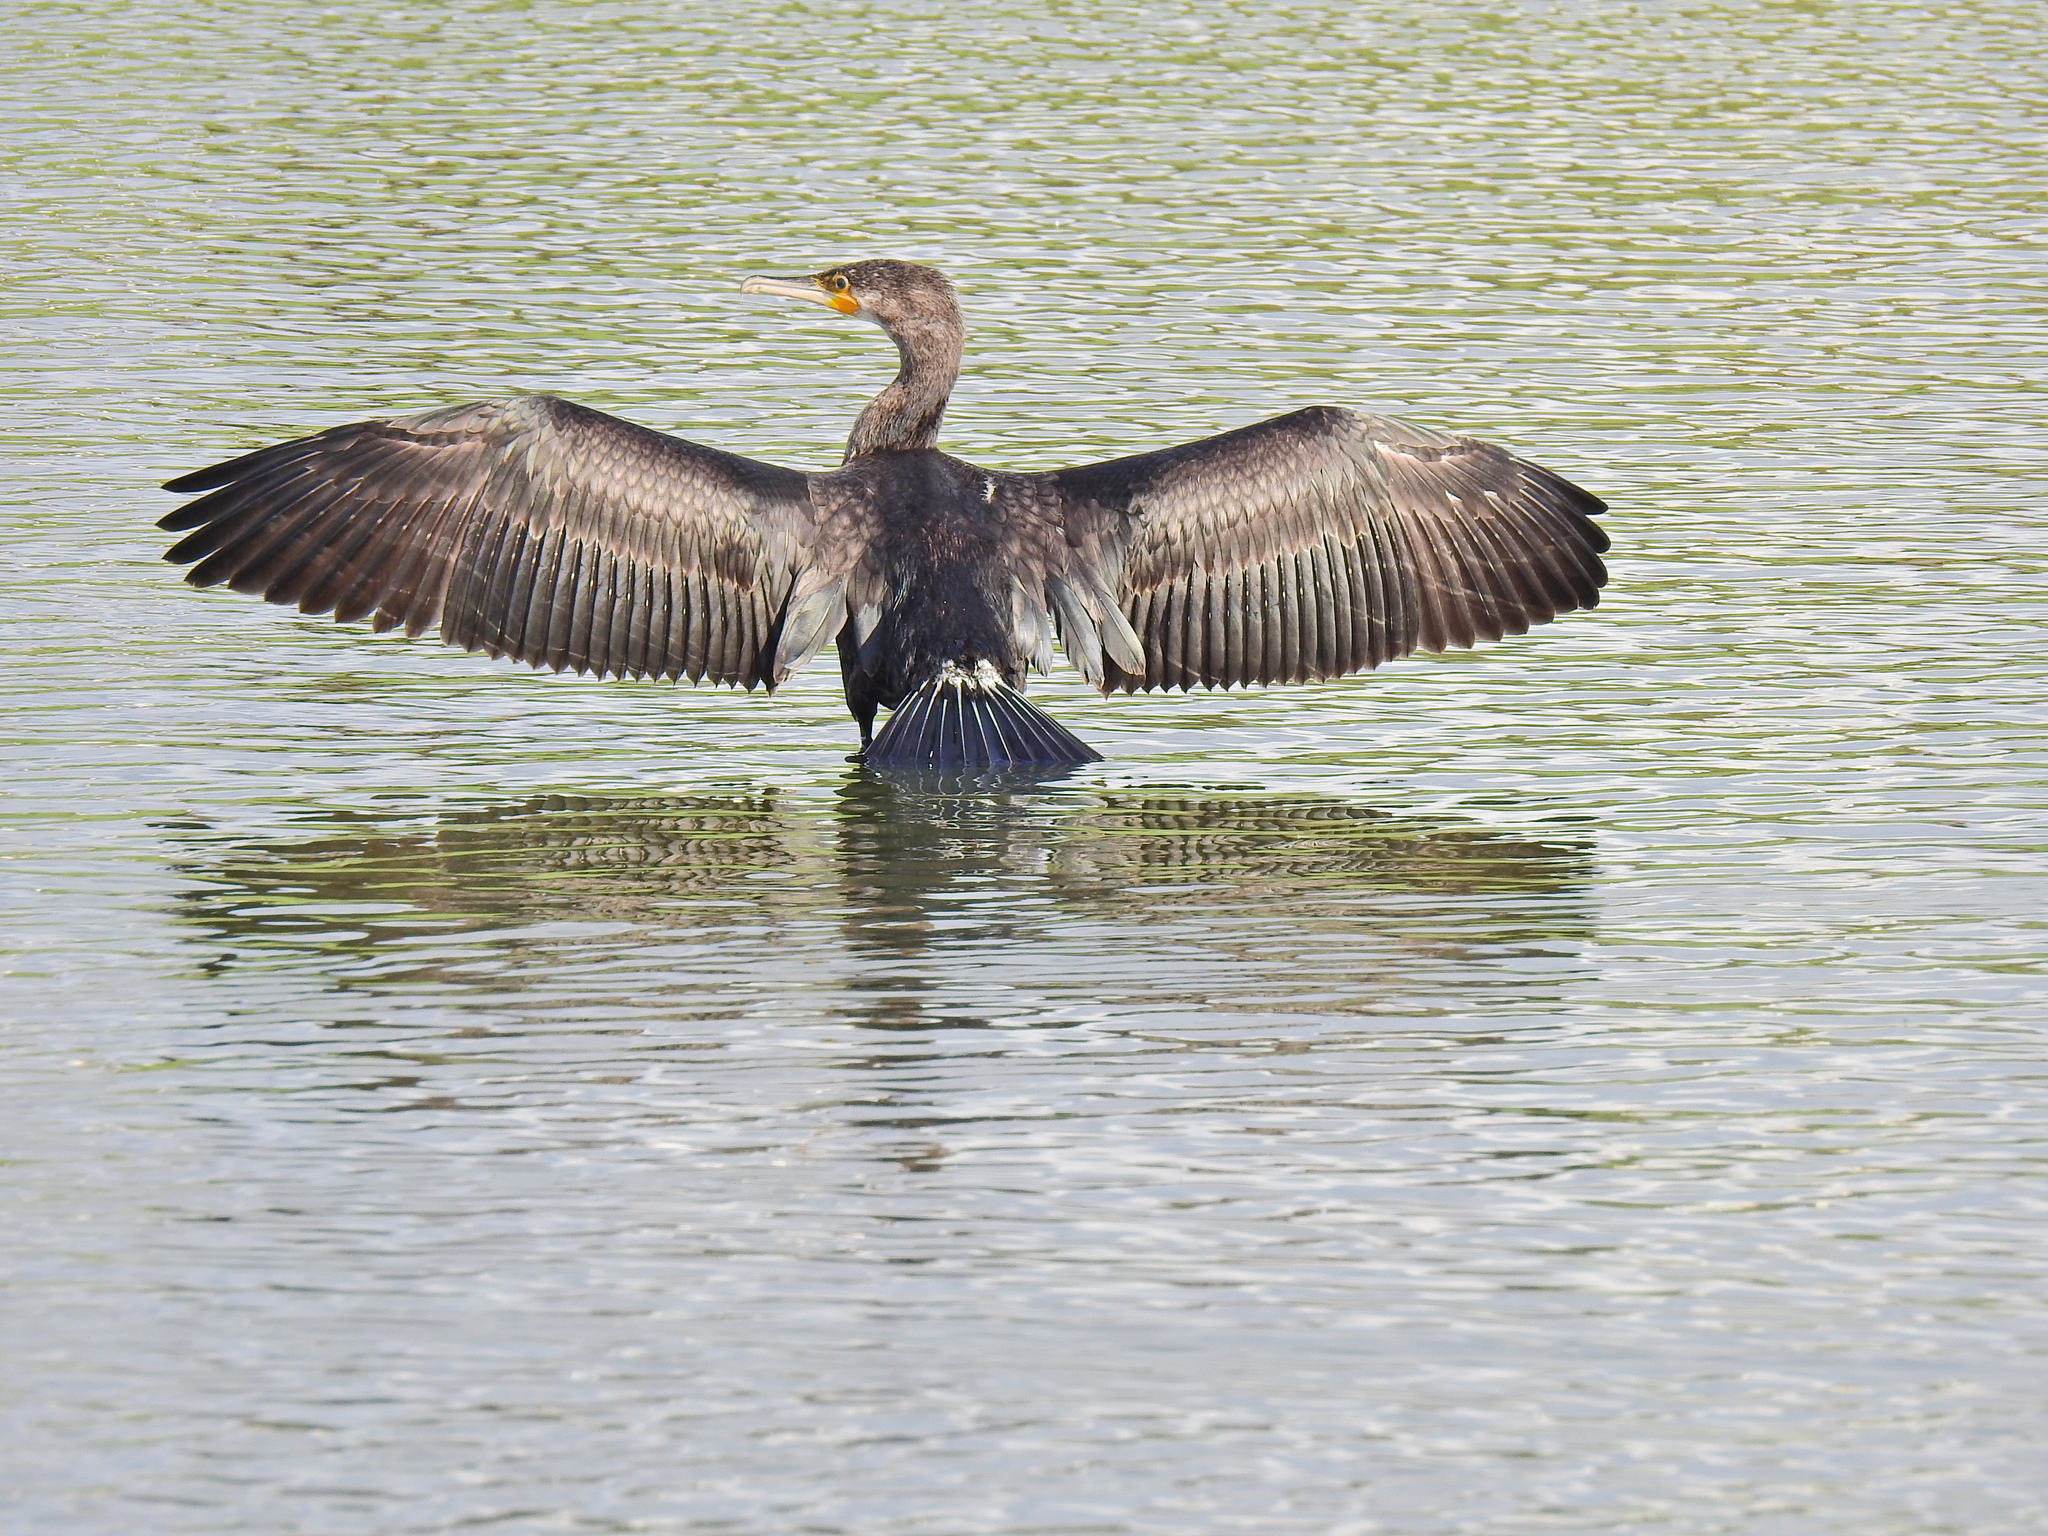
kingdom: Animalia
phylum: Chordata
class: Aves
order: Suliformes
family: Phalacrocoracidae
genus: Phalacrocorax
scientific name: Phalacrocorax carbo
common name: Great cormorant
